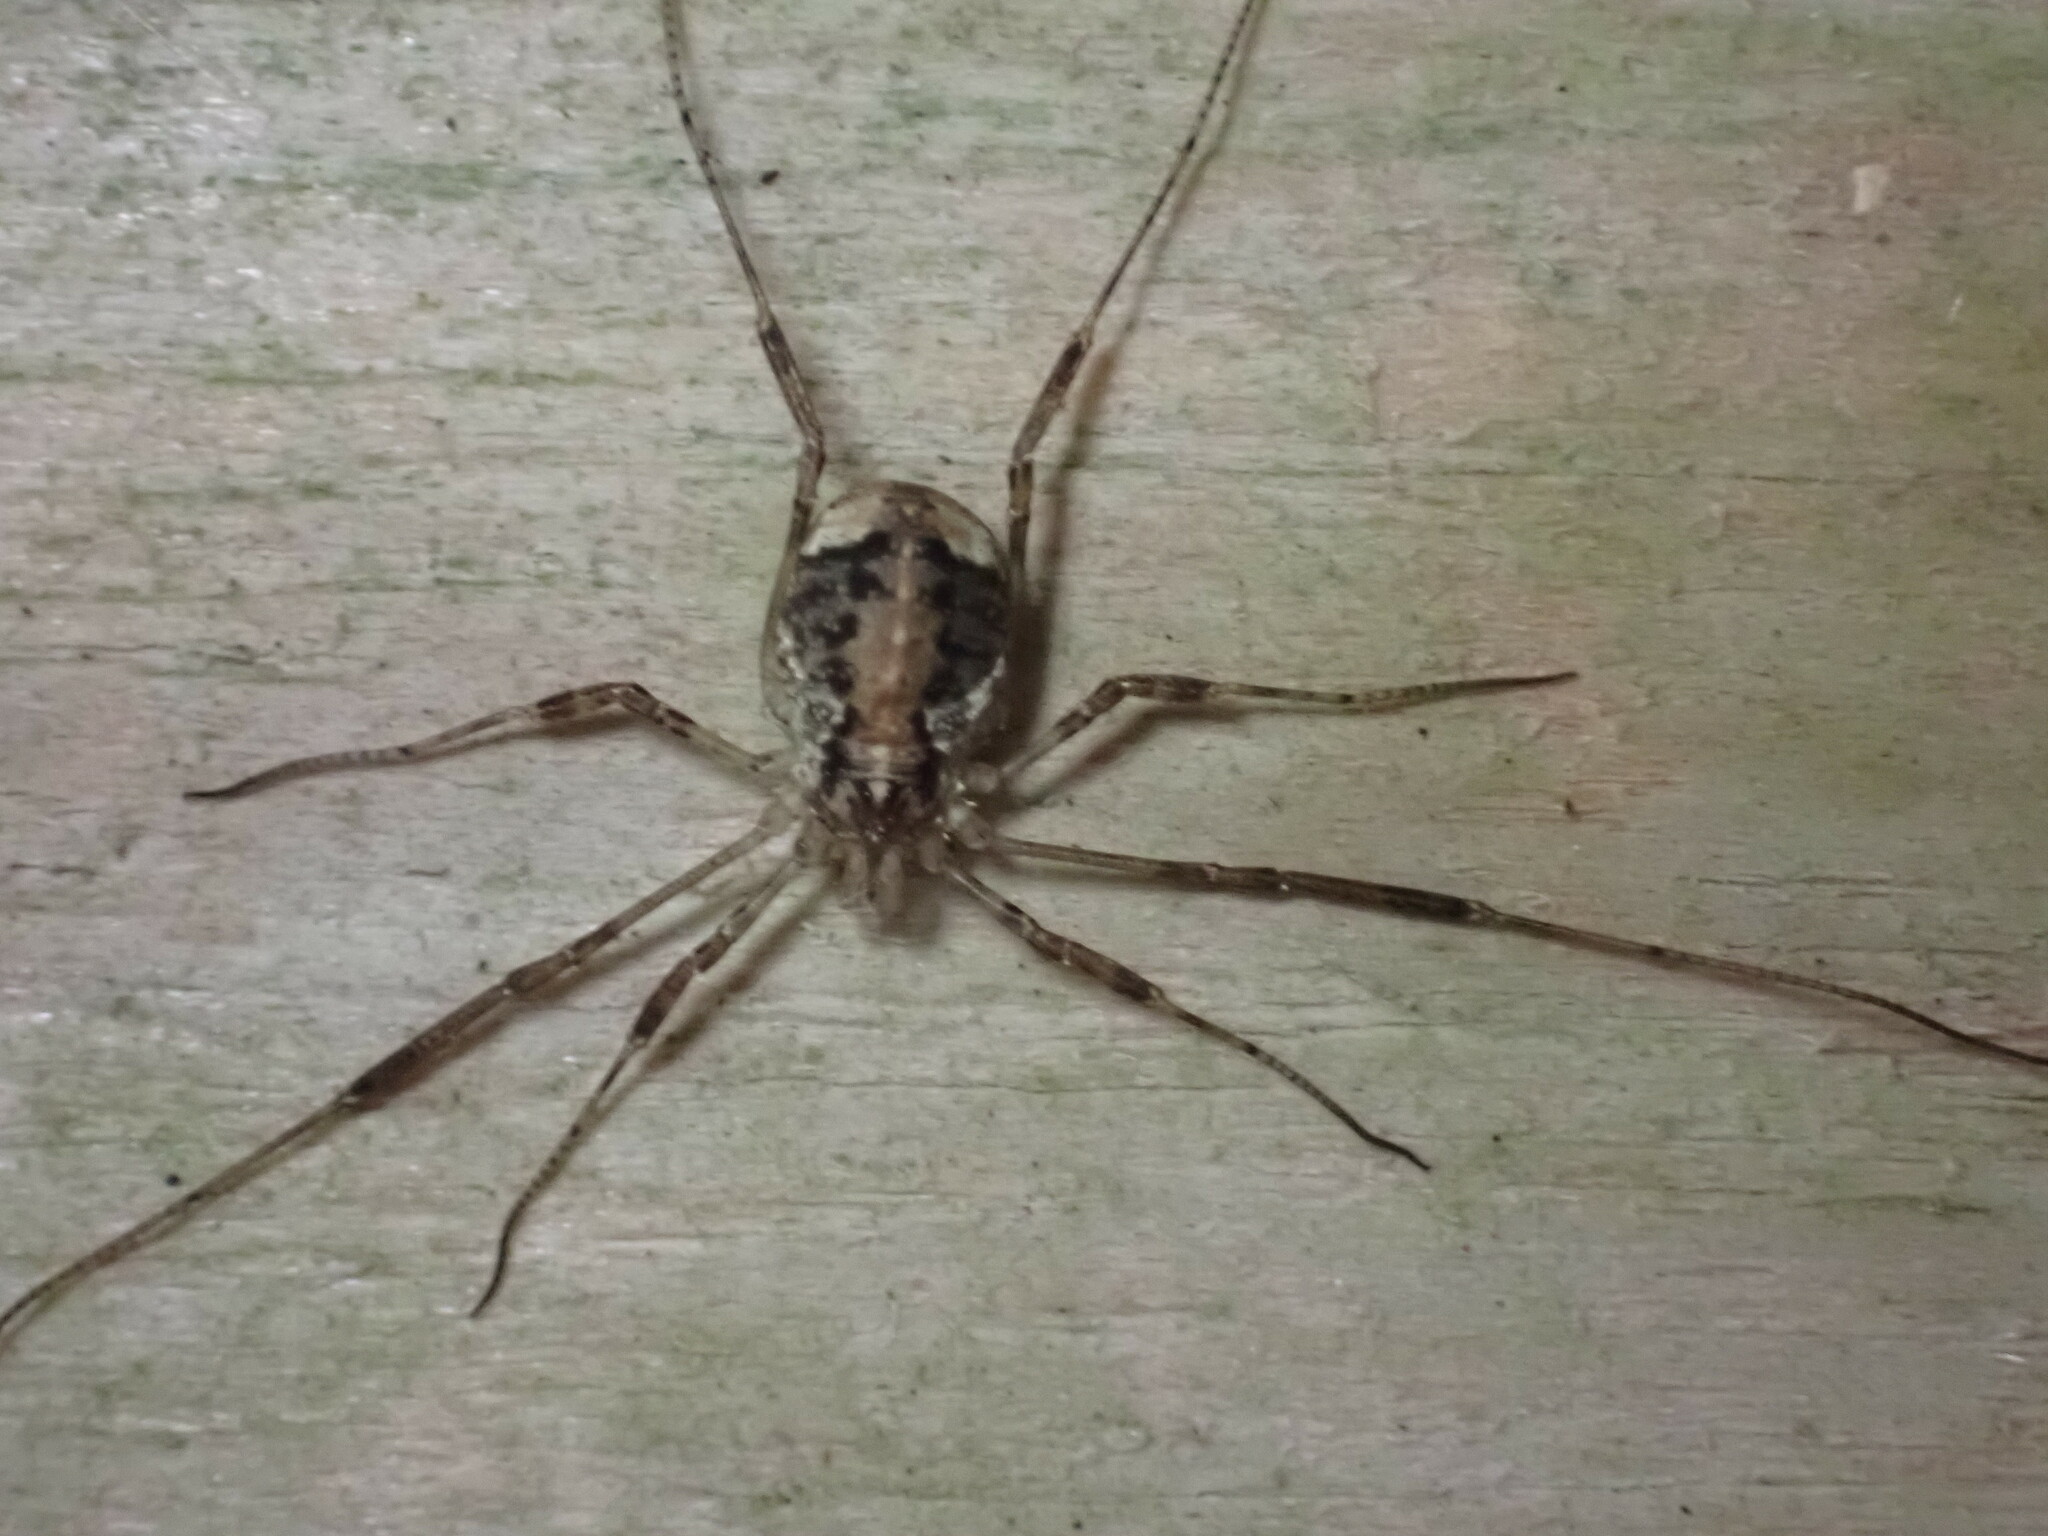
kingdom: Animalia
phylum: Arthropoda
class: Arachnida
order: Opiliones
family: Phalangiidae
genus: Paroligolophus
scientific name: Paroligolophus agrestis
